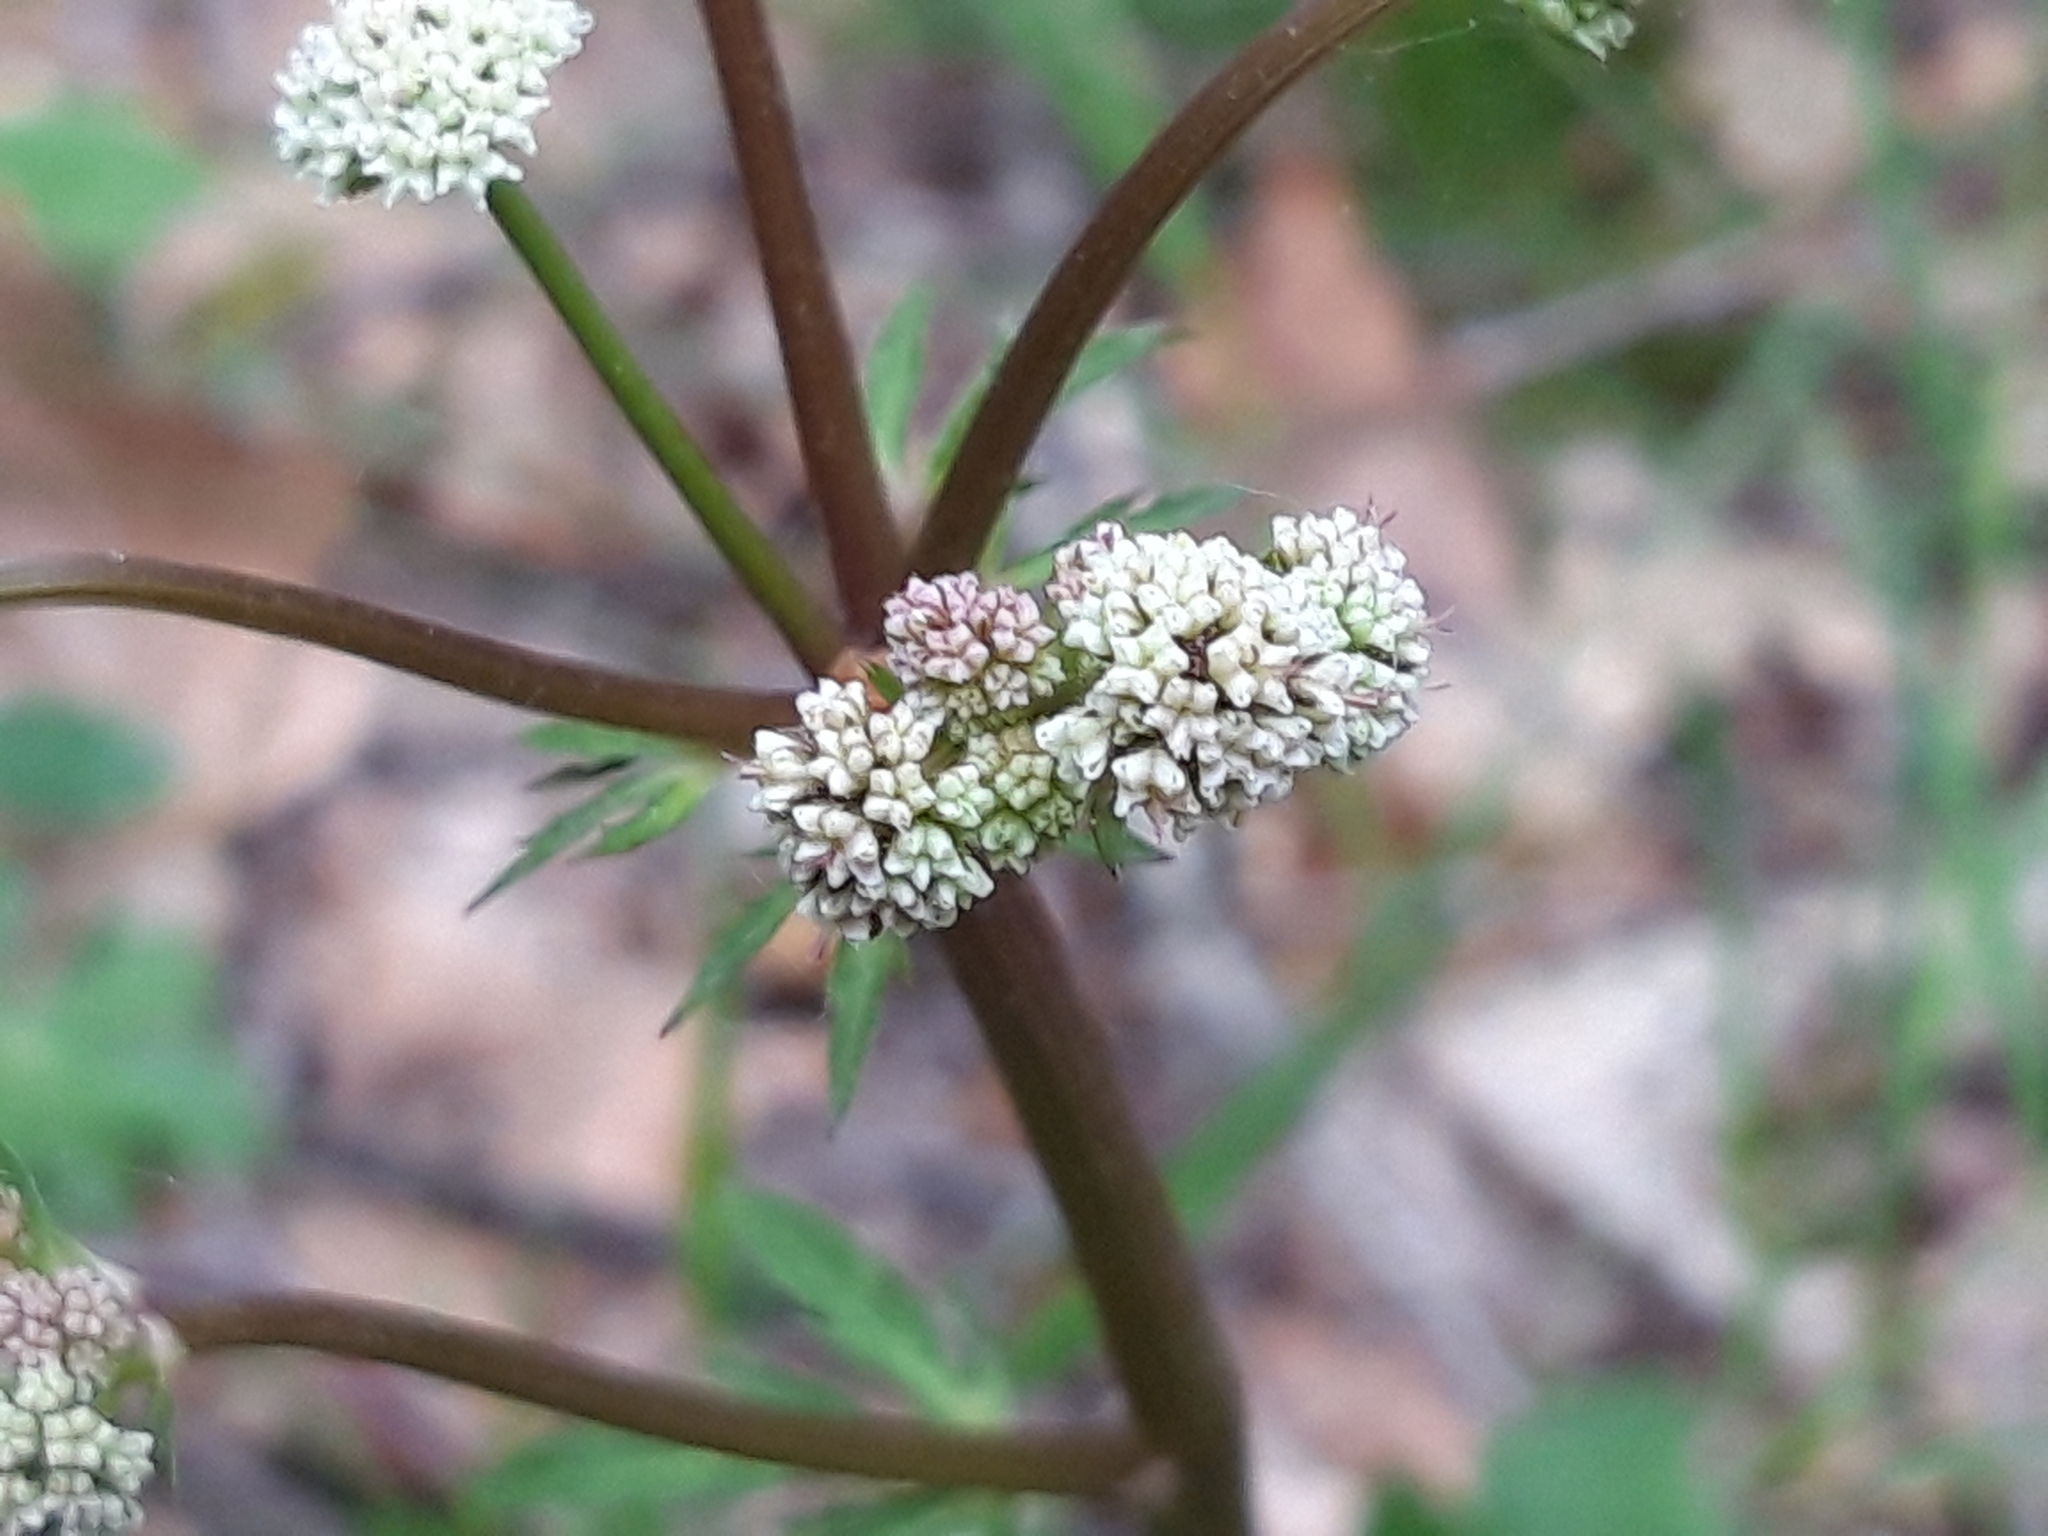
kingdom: Plantae
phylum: Tracheophyta
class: Magnoliopsida
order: Apiales
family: Apiaceae
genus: Sanicula
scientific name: Sanicula europaea
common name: Sanicle
